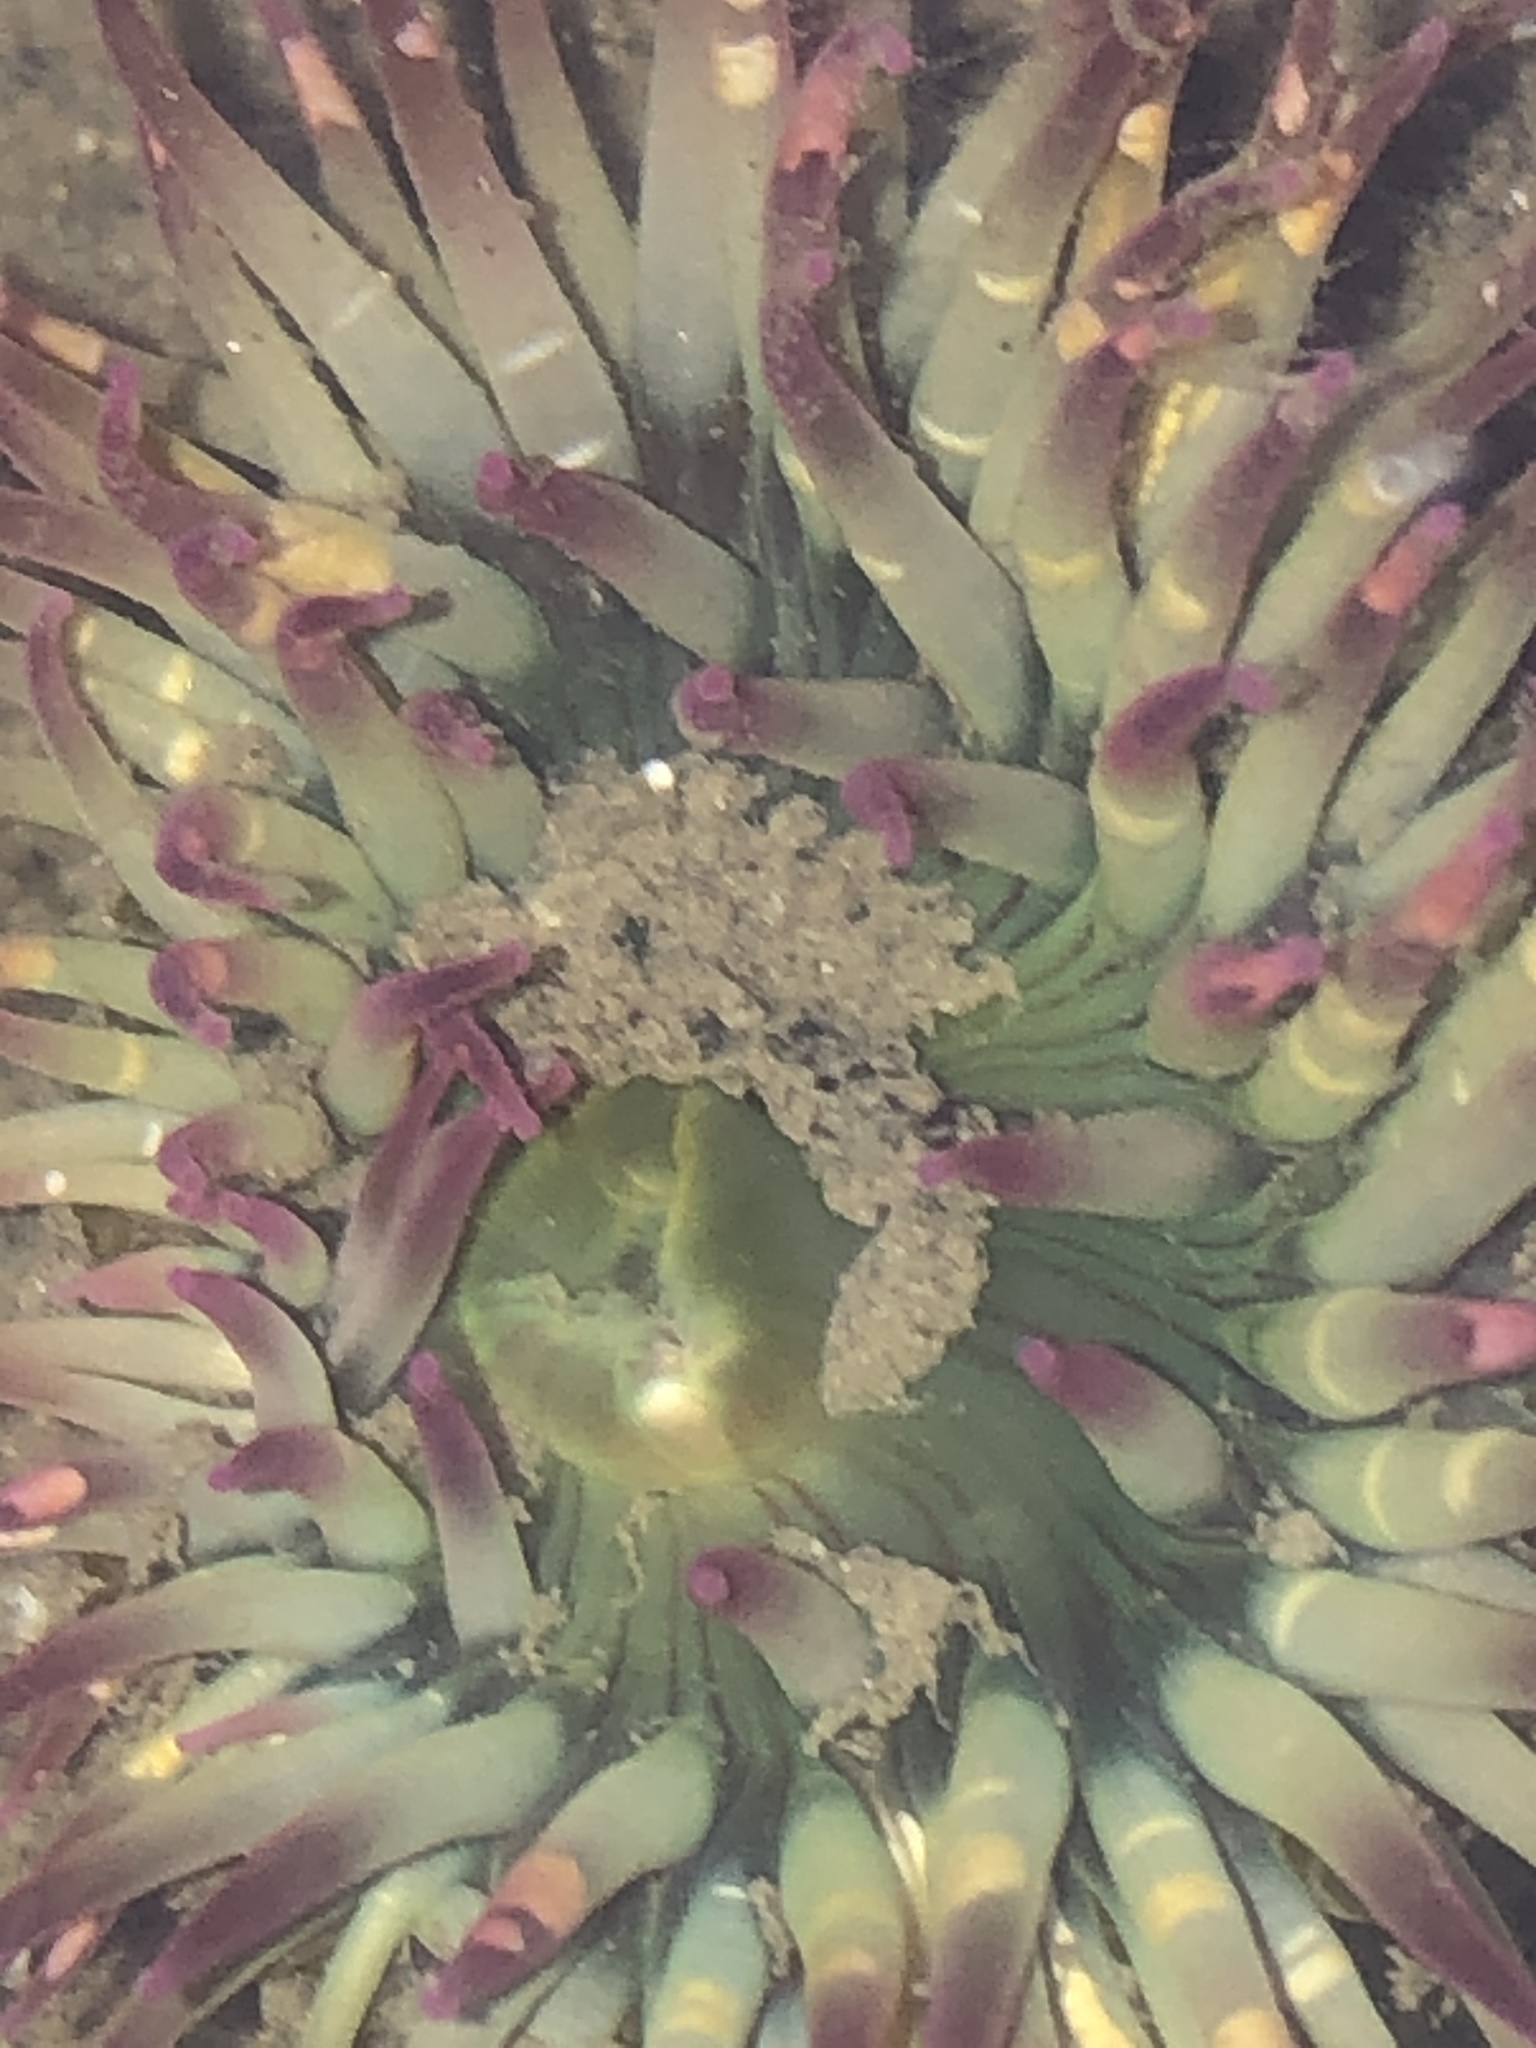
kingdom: Animalia
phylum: Cnidaria
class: Anthozoa
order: Actiniaria
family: Actiniidae
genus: Anthopleura
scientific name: Anthopleura elegantissima
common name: Clonal anemone
